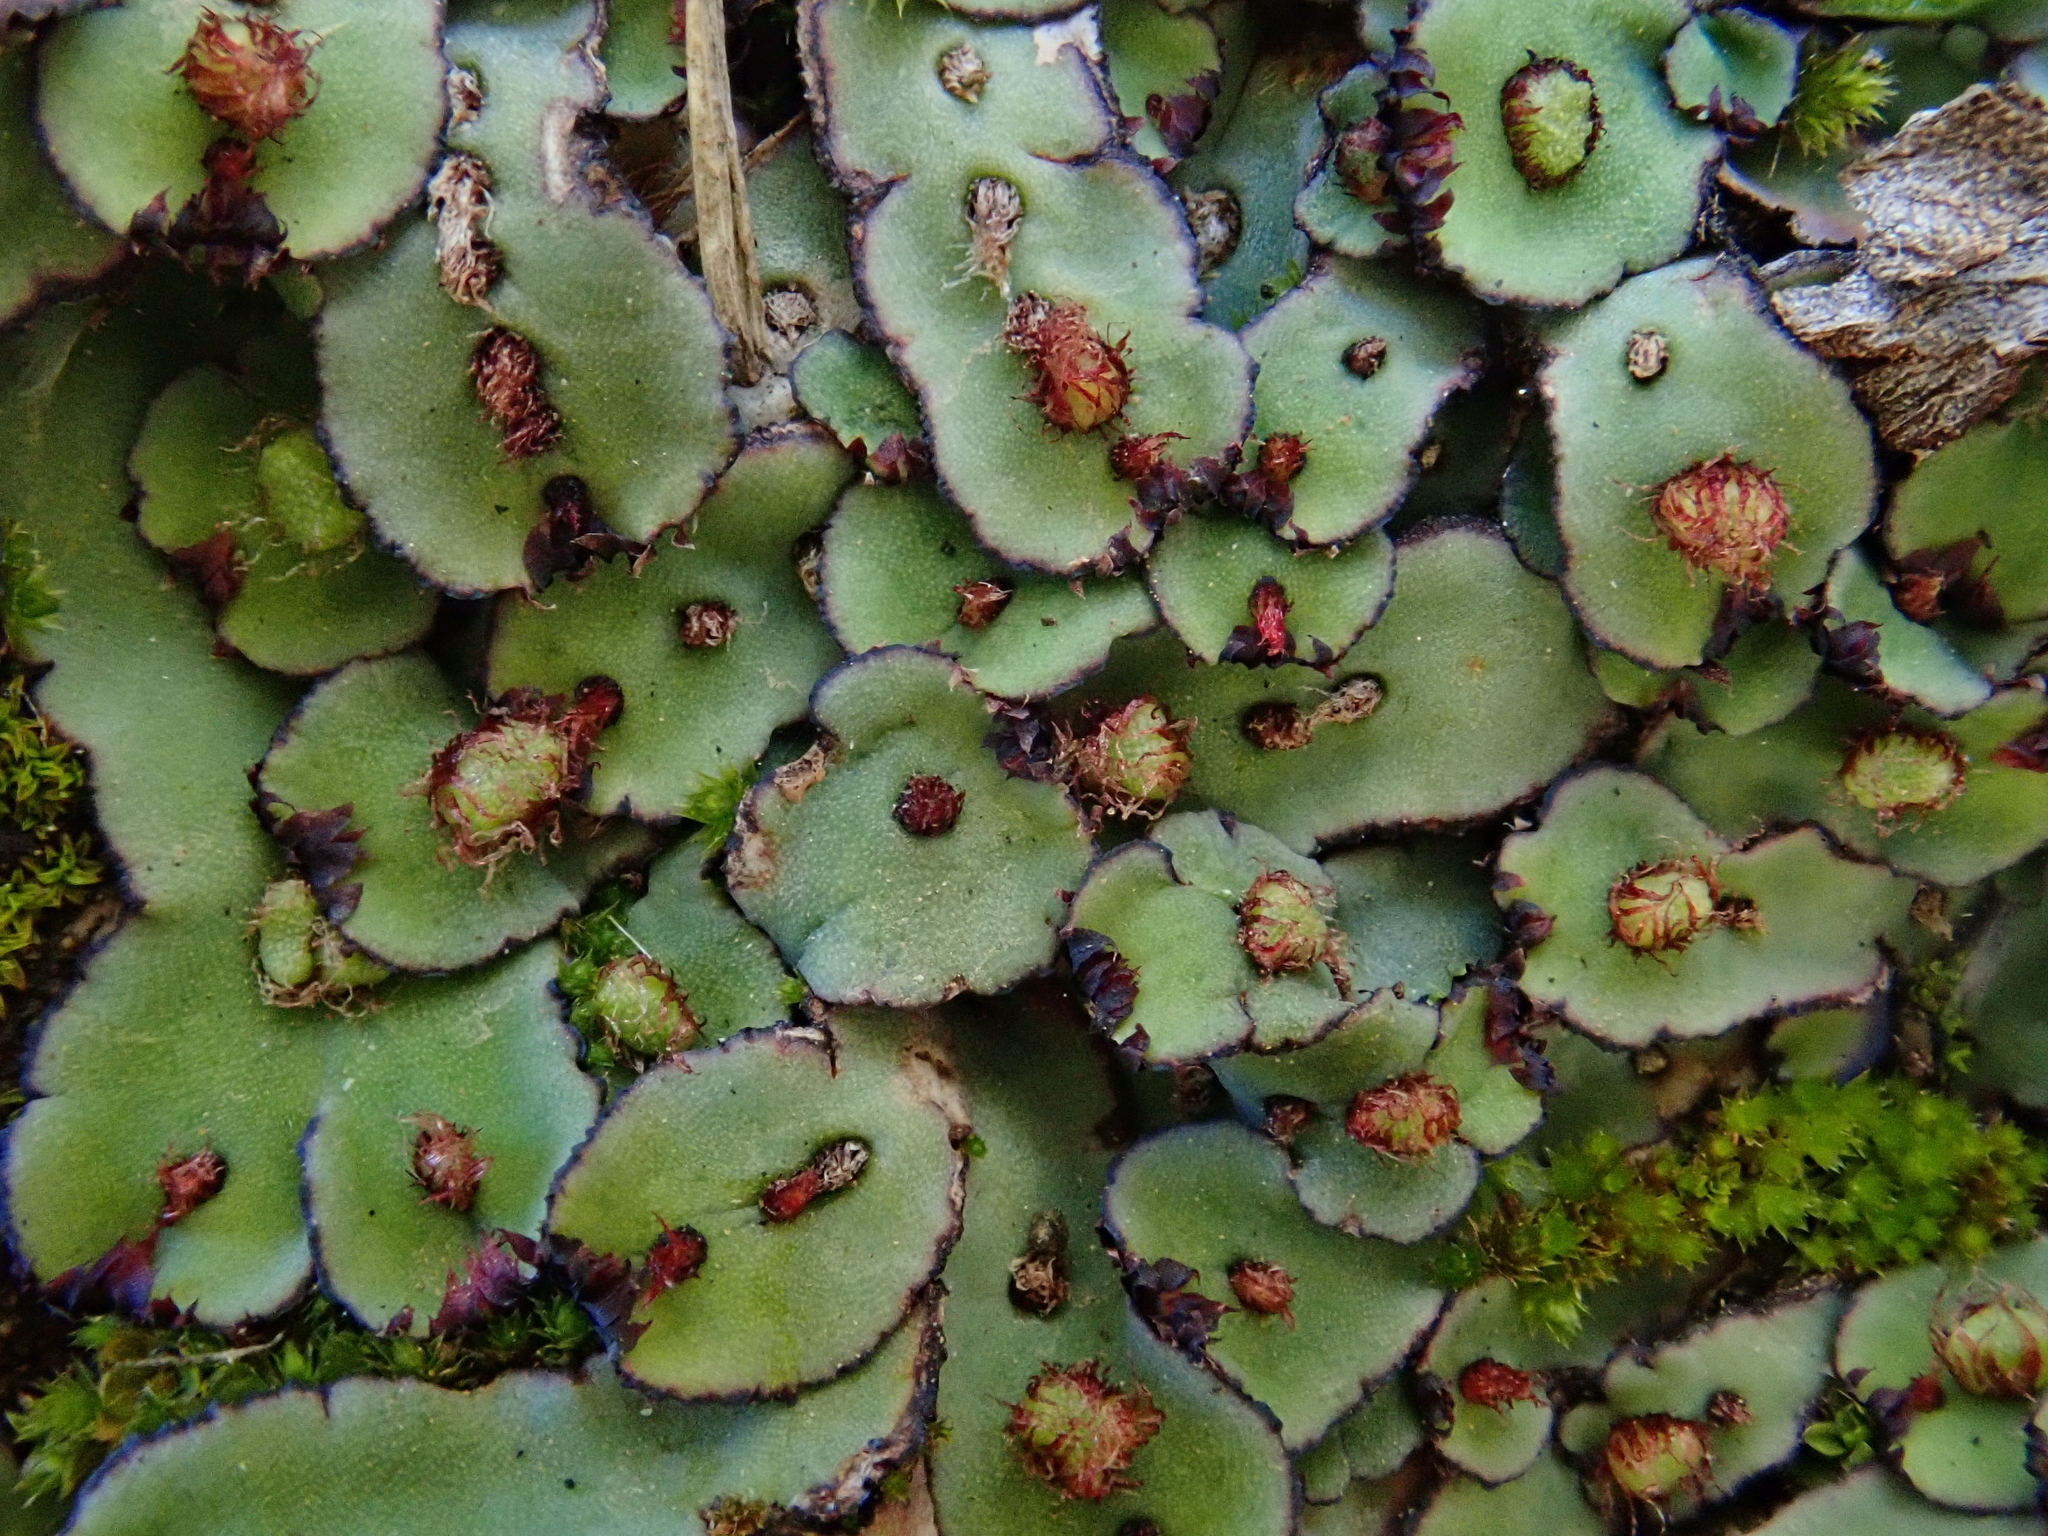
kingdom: Plantae
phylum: Marchantiophyta
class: Marchantiopsida
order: Marchantiales
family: Aytoniaceae
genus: Plagiochasma
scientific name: Plagiochasma rupestre
